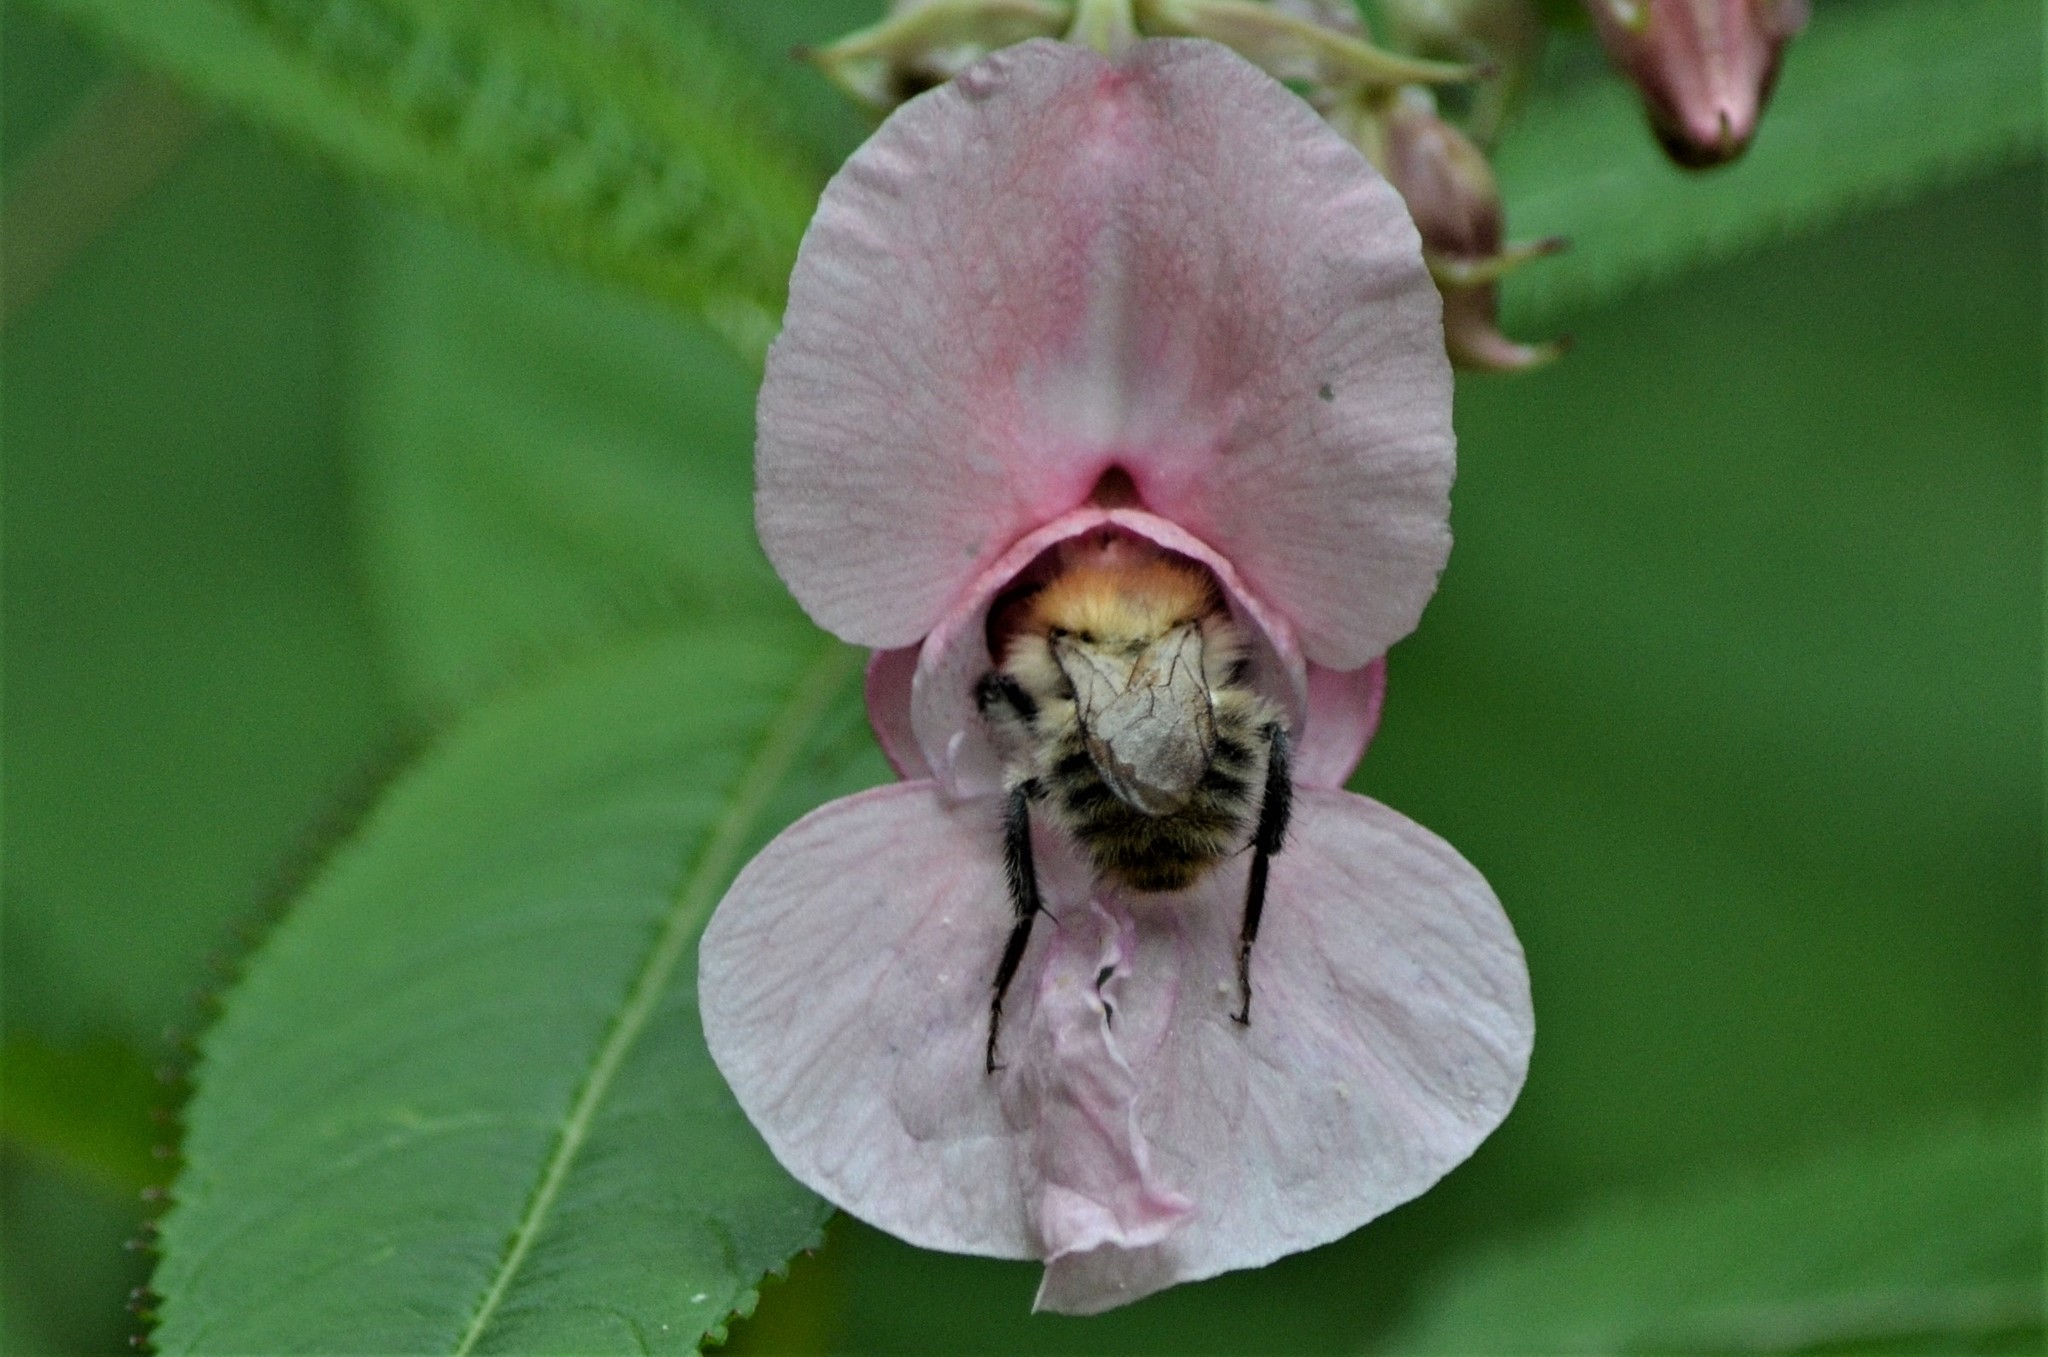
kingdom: Animalia
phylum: Arthropoda
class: Insecta
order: Hymenoptera
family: Apidae
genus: Bombus
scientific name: Bombus pascuorum
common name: Common carder bee
